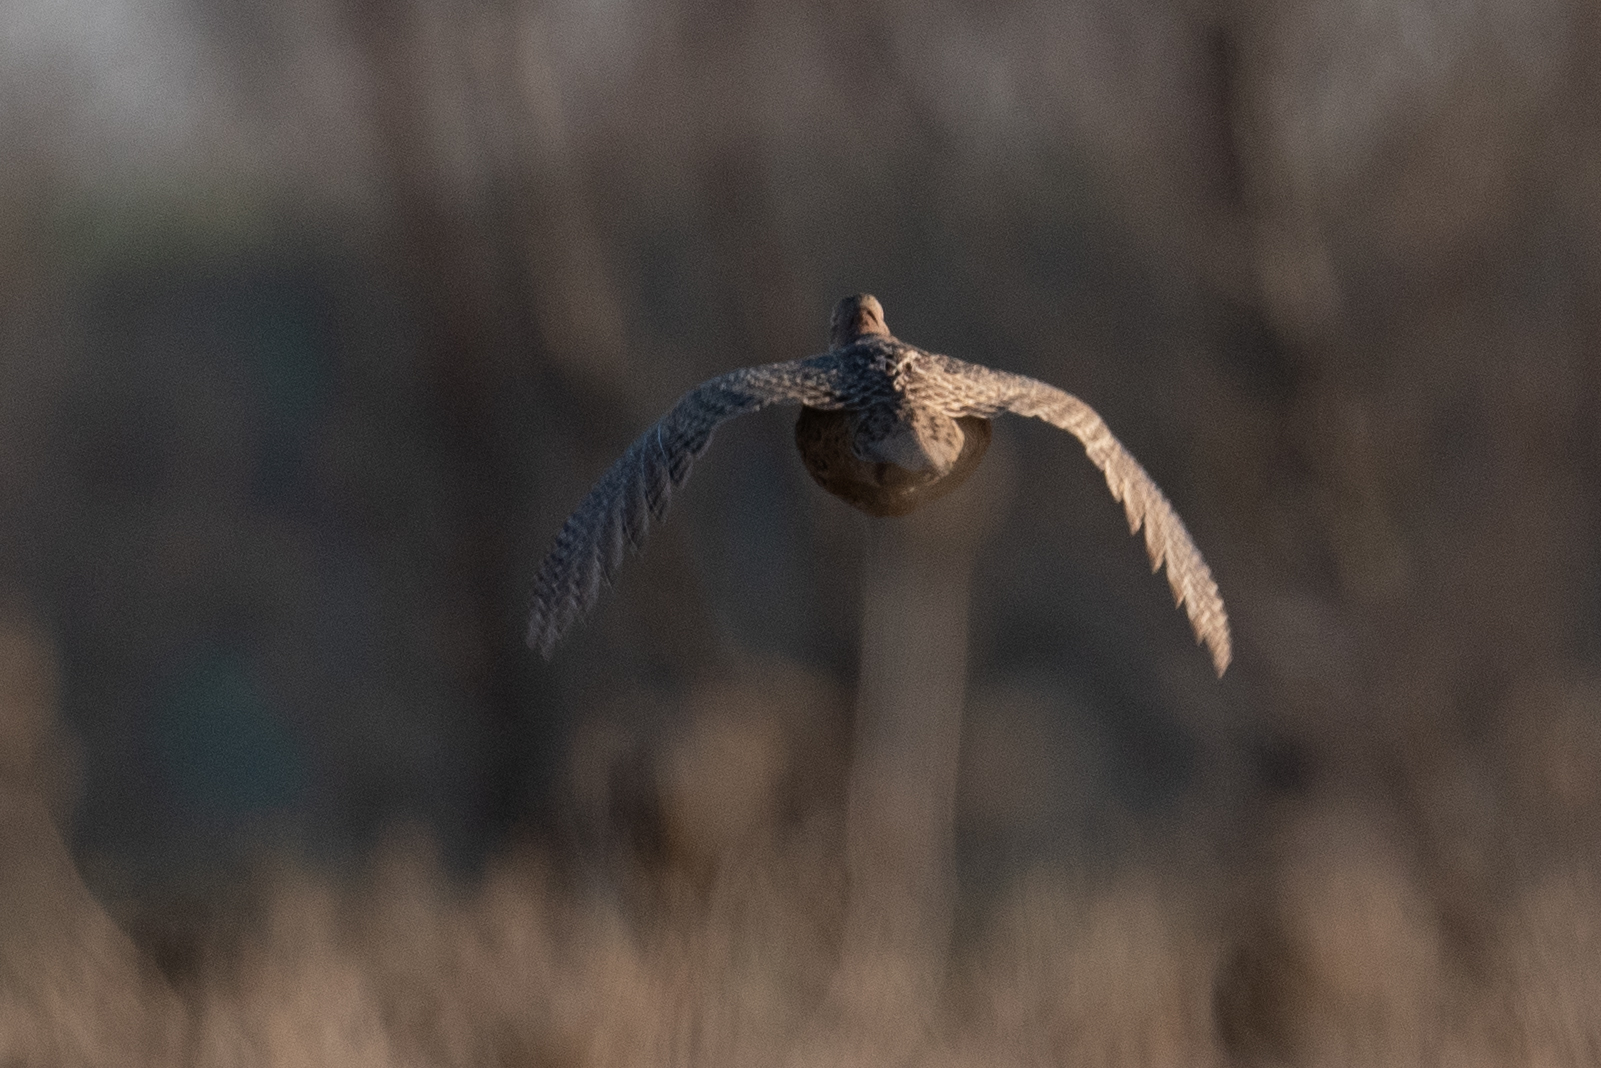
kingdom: Animalia
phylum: Chordata
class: Aves
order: Galliformes
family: Phasianidae
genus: Phasianus
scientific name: Phasianus colchicus
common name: Common pheasant
